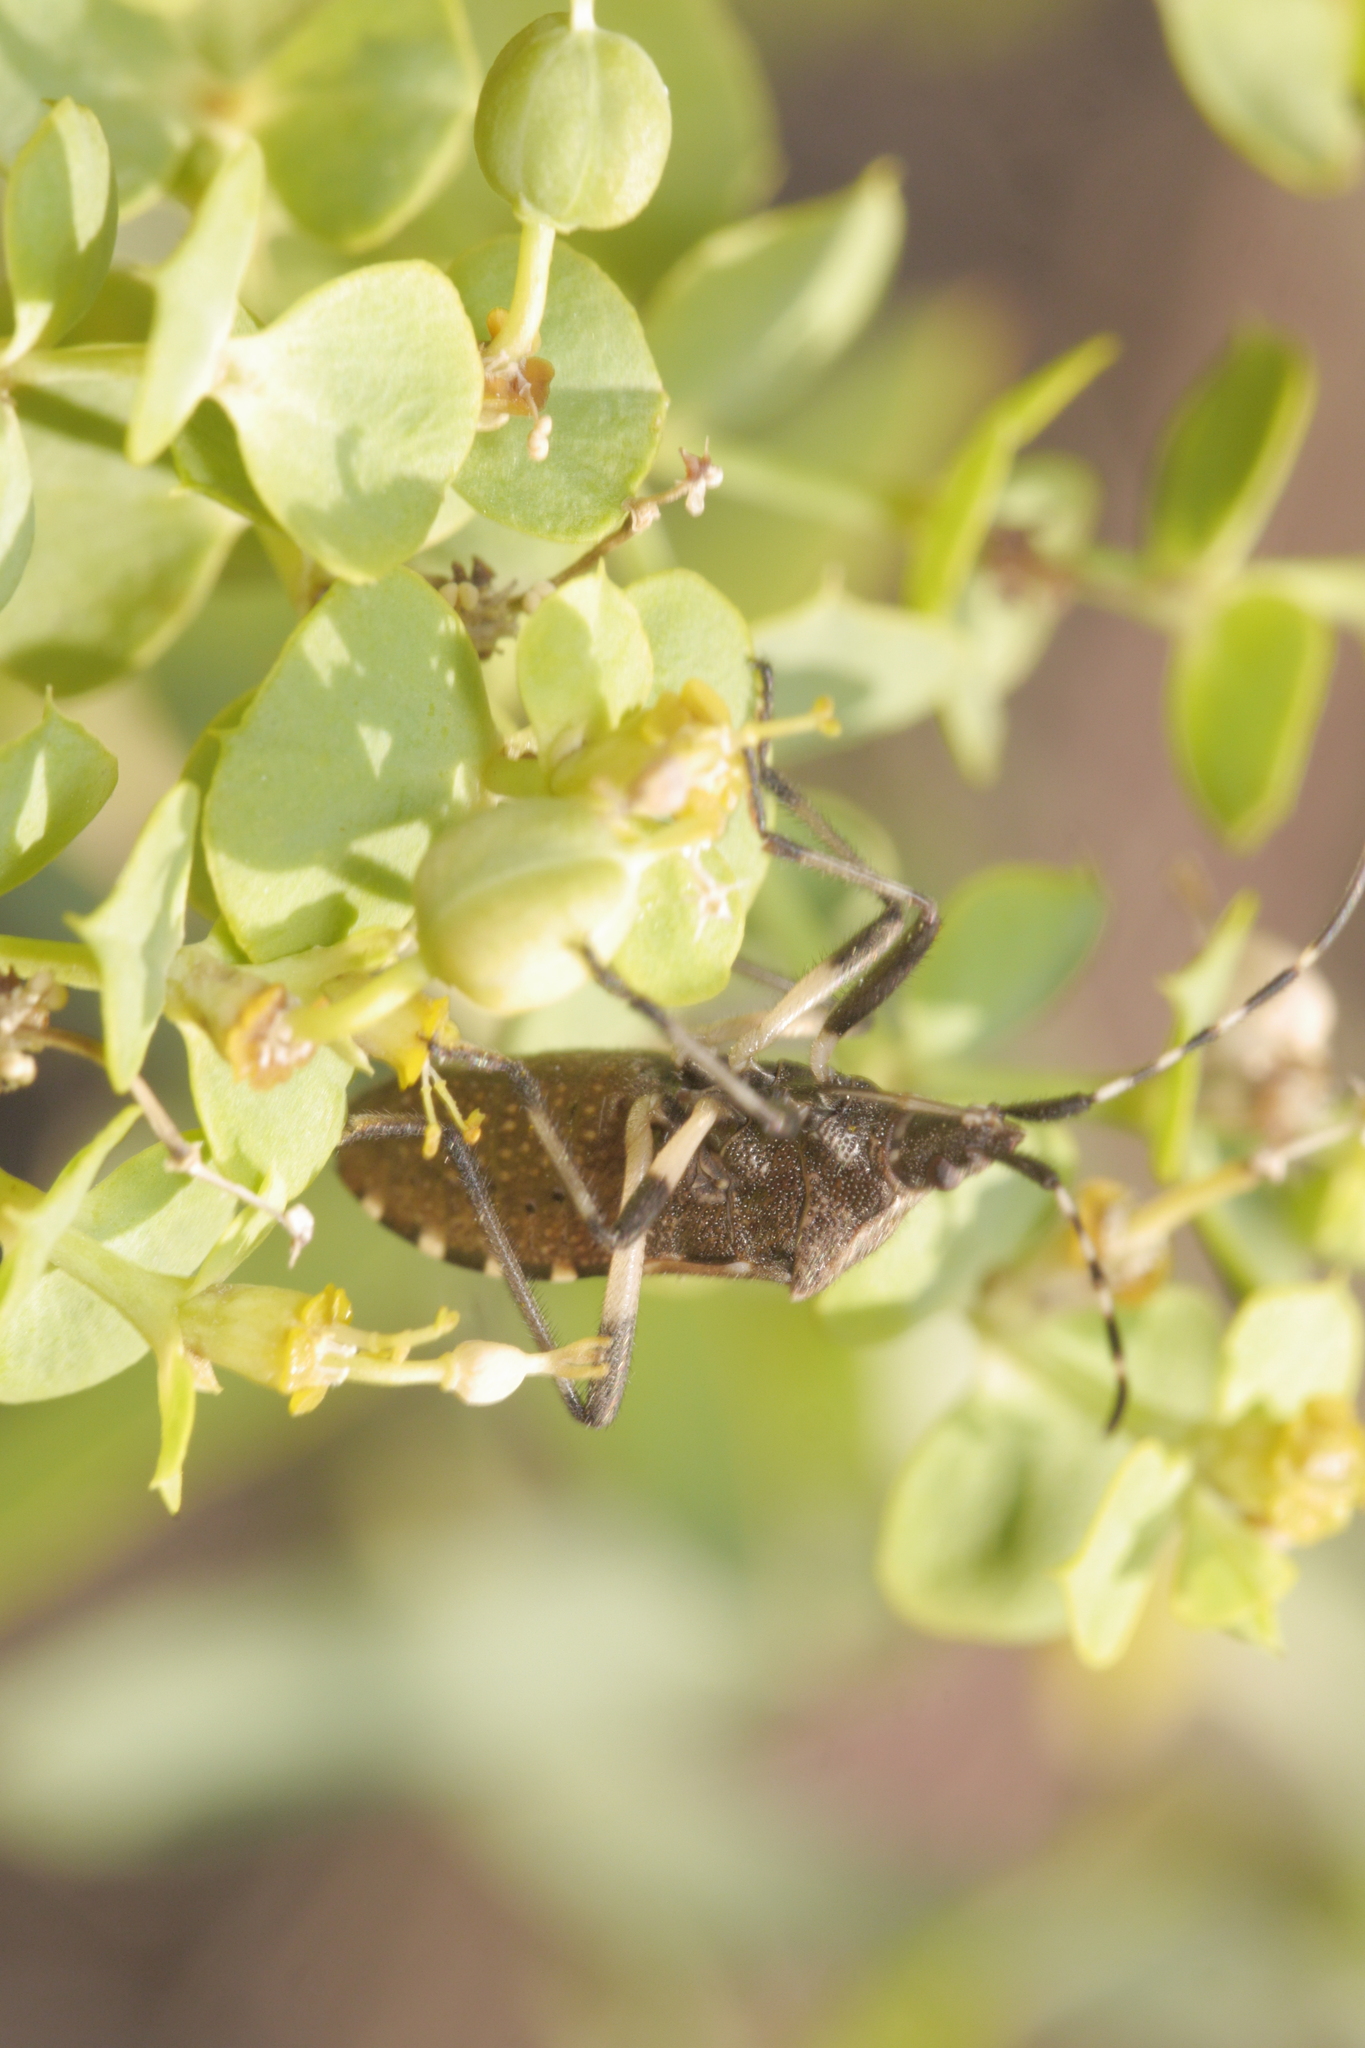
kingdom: Animalia
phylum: Arthropoda
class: Insecta
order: Hemiptera
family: Stenocephalidae
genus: Dicranocephalus
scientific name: Dicranocephalus agilis
